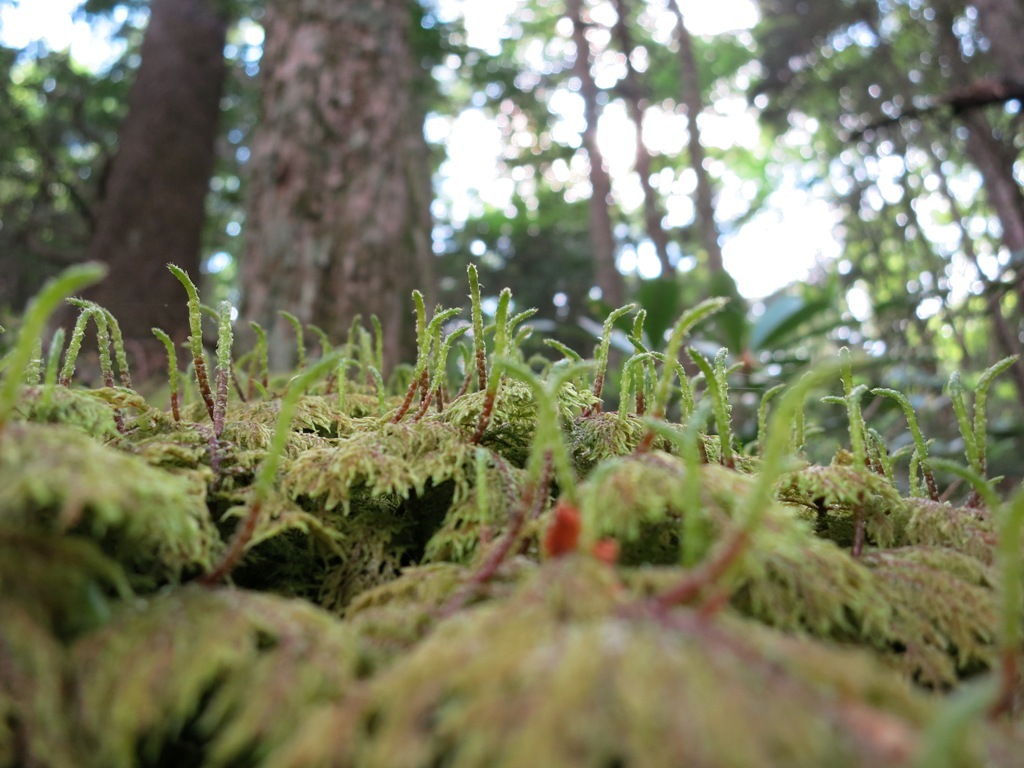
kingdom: Plantae
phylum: Bryophyta
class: Bryopsida
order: Hypnales
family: Hylocomiaceae
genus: Hylocomium
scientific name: Hylocomium splendens
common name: Stairstep moss
